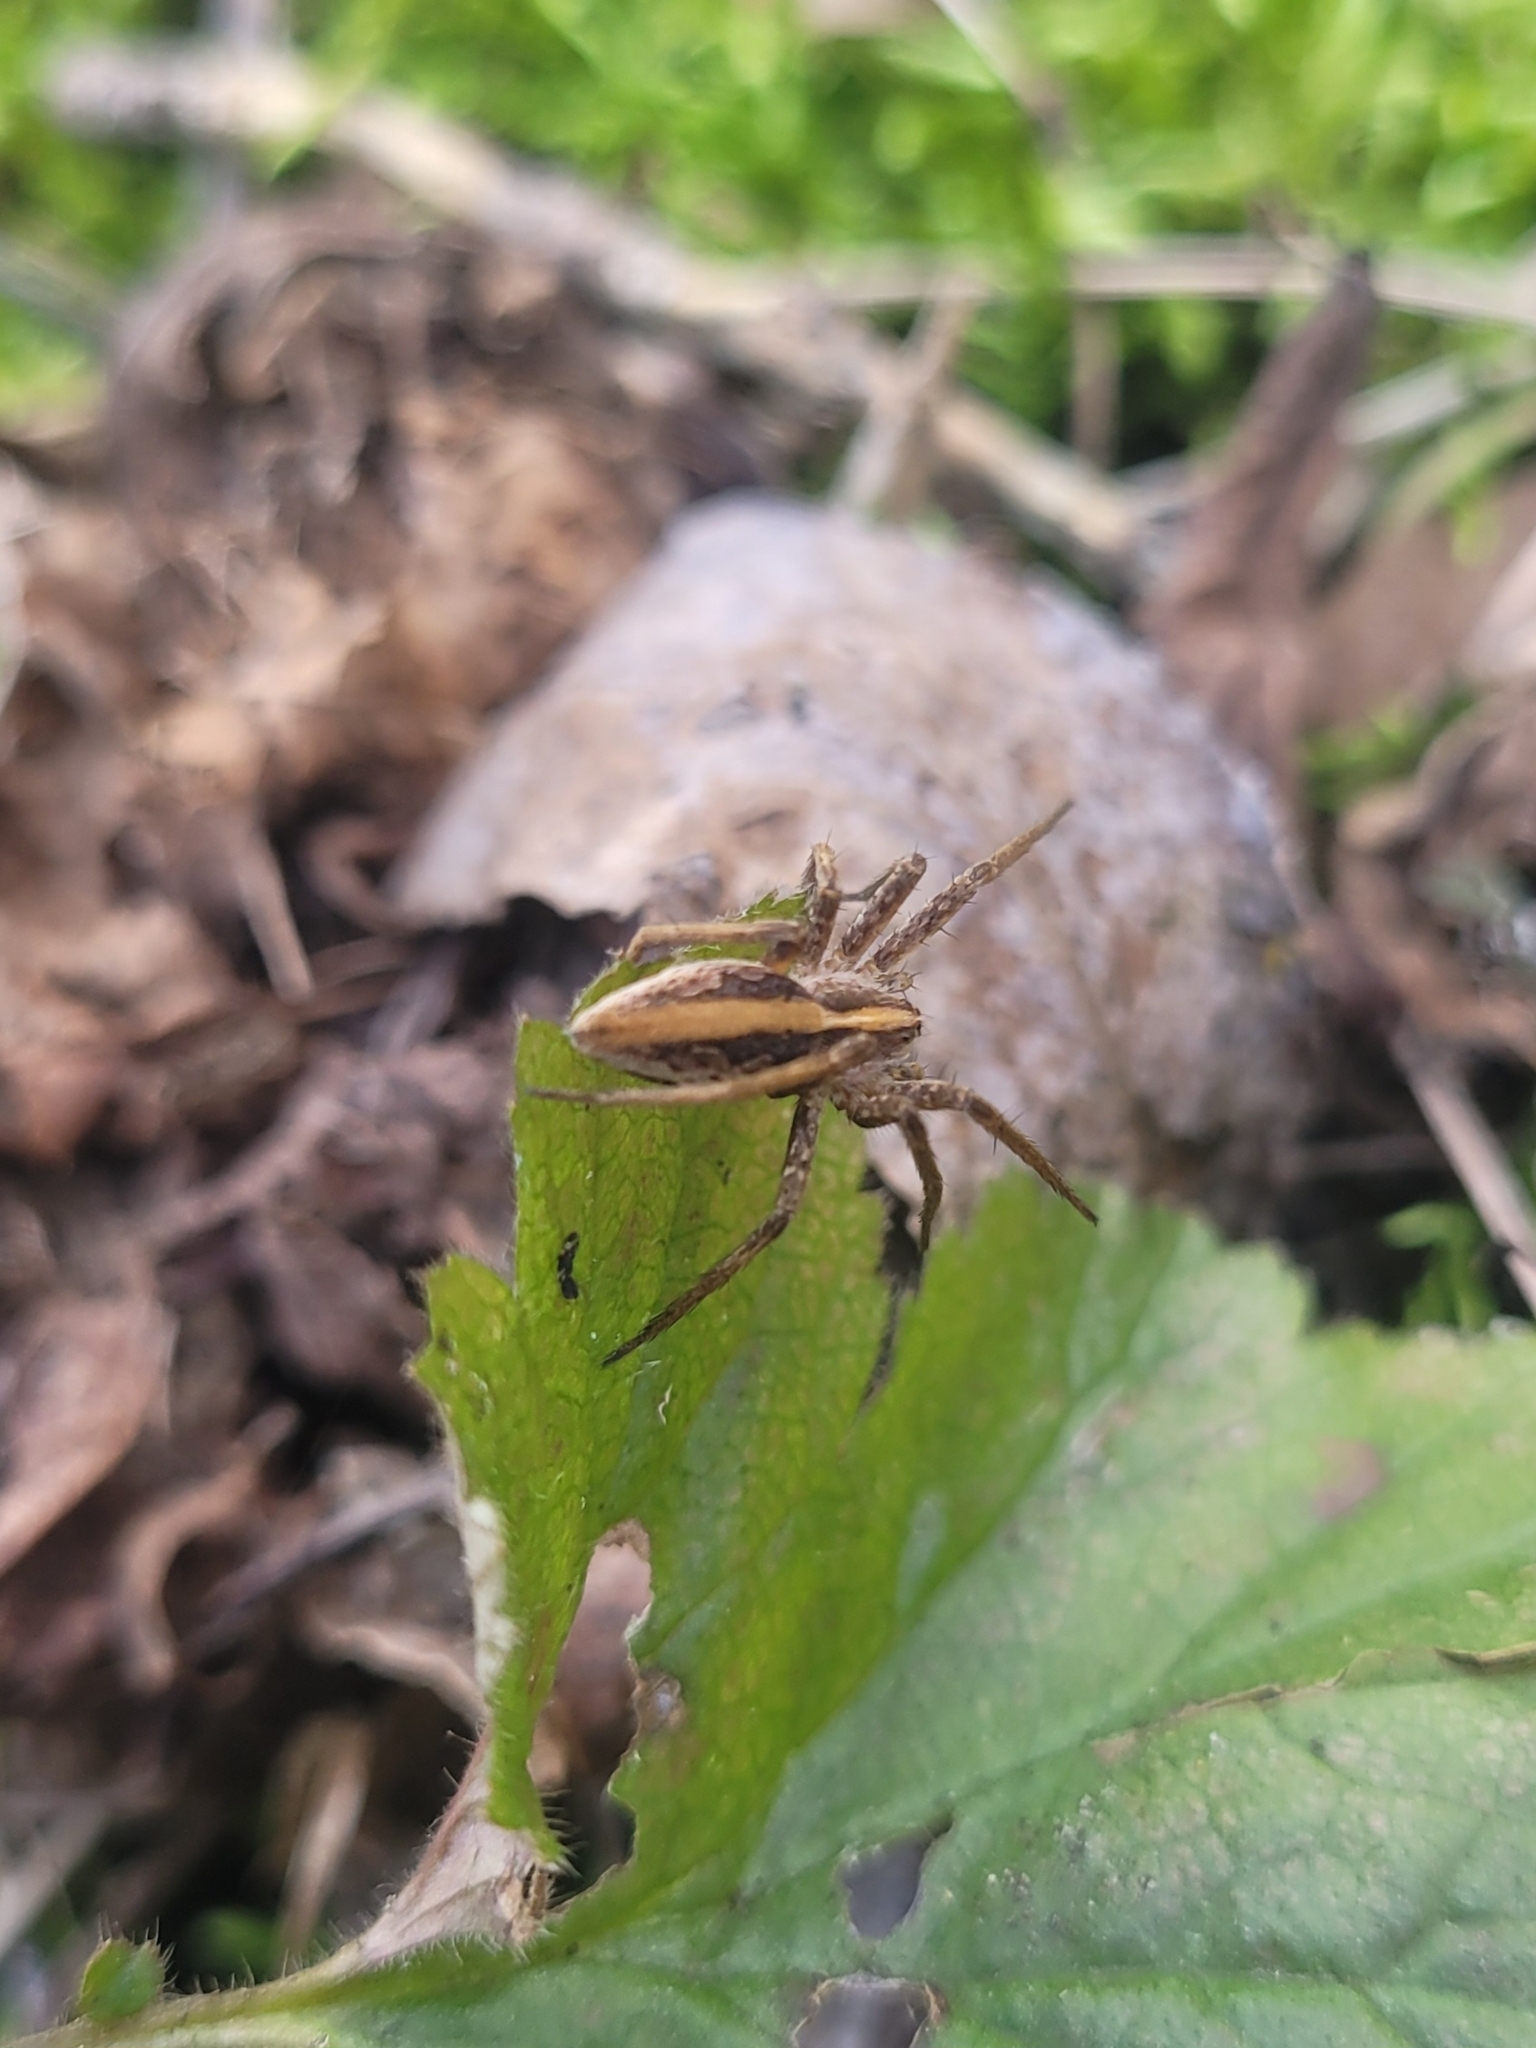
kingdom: Animalia
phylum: Arthropoda
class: Arachnida
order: Araneae
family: Pisauridae
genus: Pisaura
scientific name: Pisaura mirabilis
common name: Tent spider
